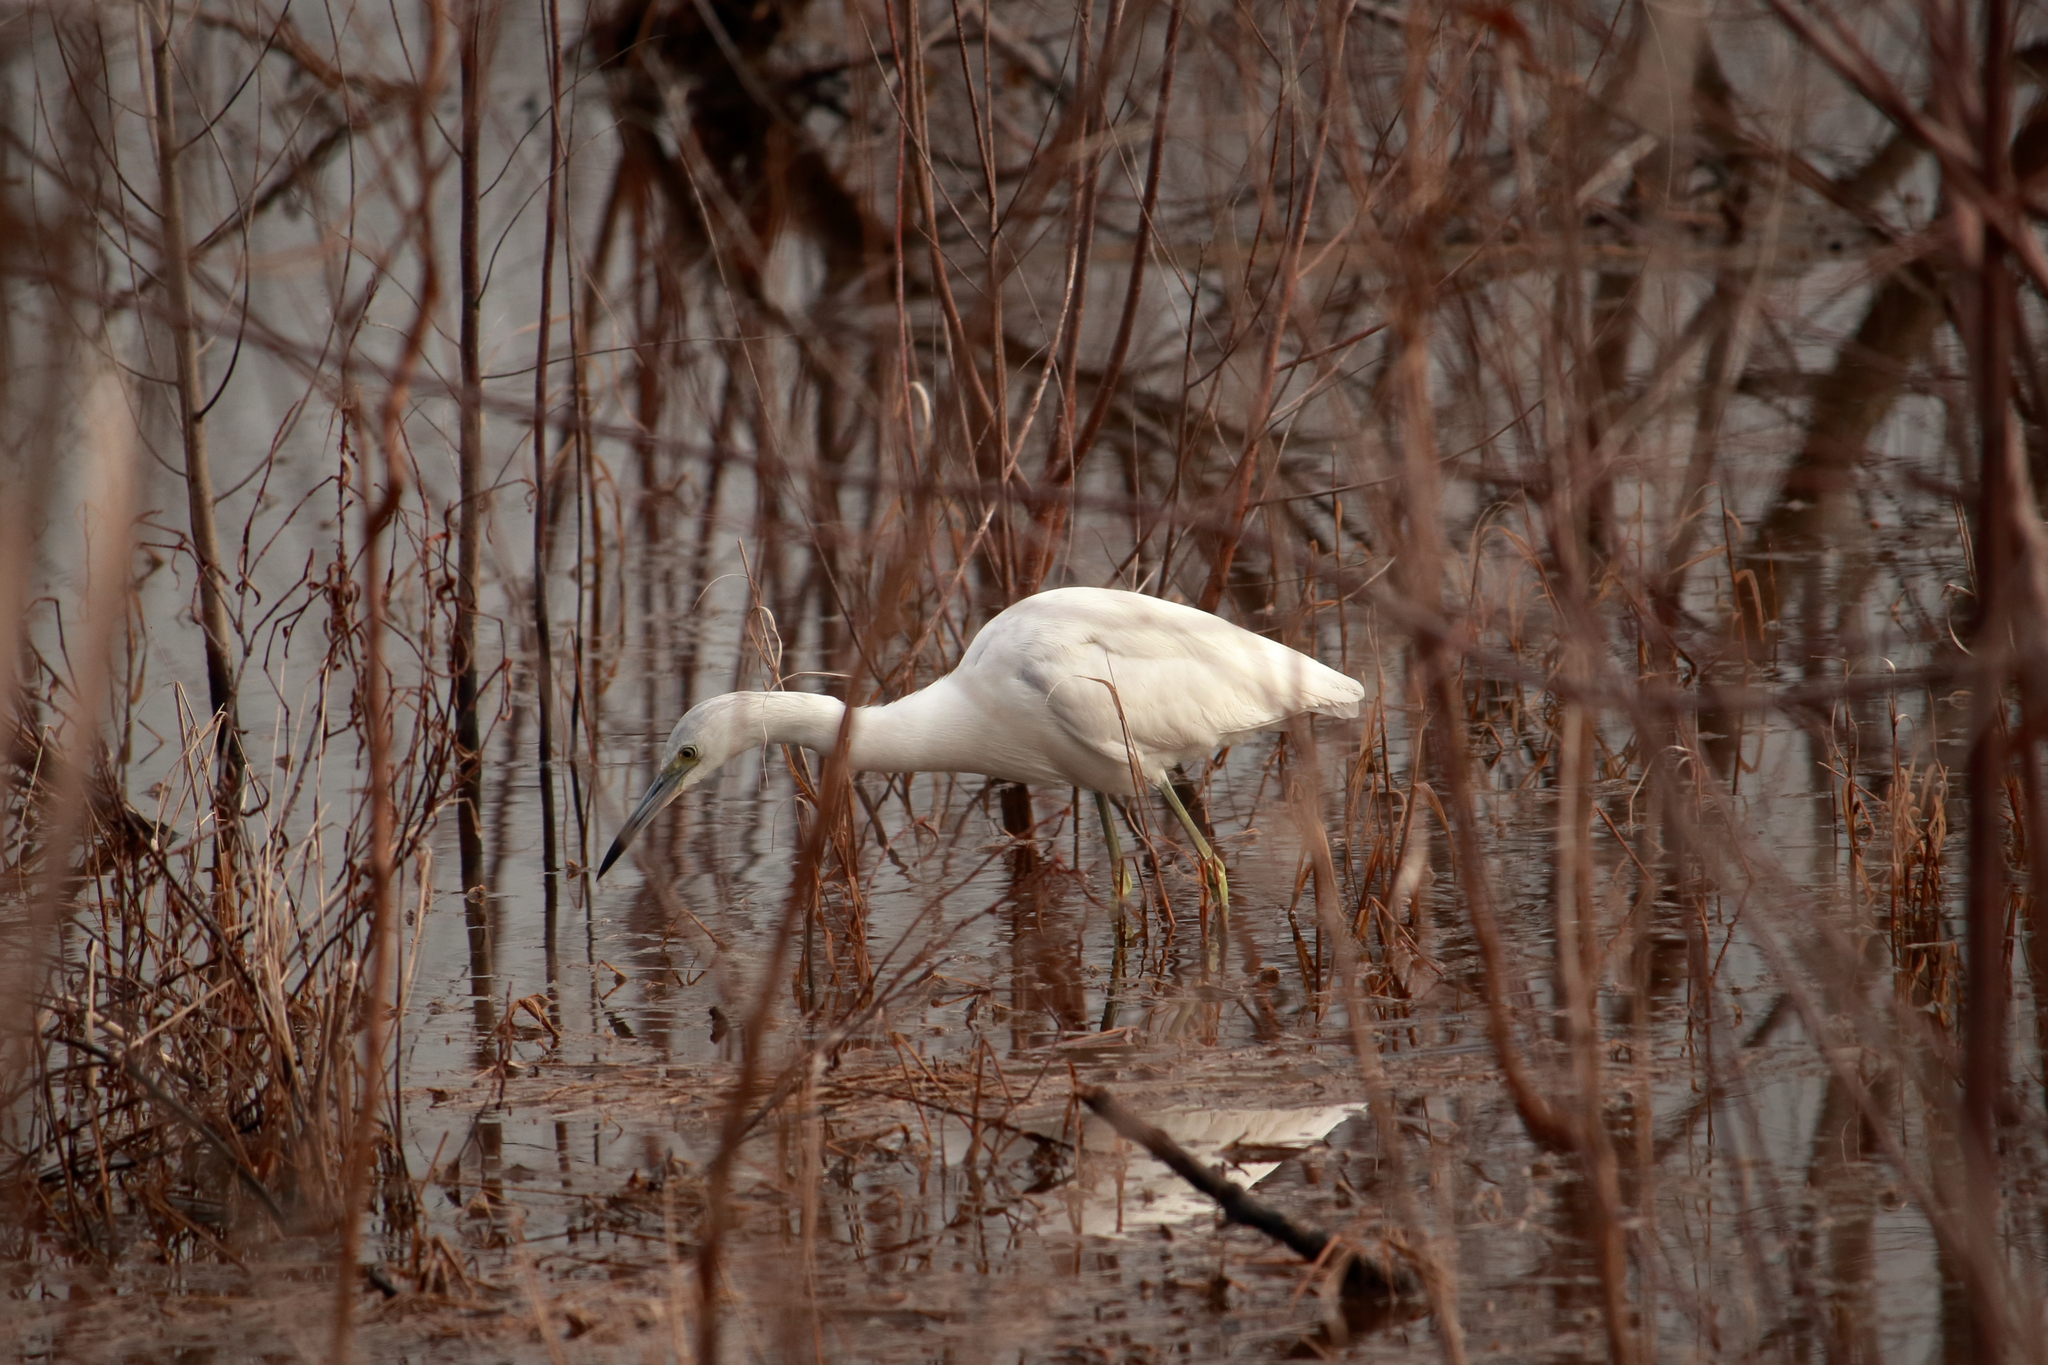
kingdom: Animalia
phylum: Chordata
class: Aves
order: Pelecaniformes
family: Ardeidae
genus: Egretta
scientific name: Egretta caerulea
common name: Little blue heron
